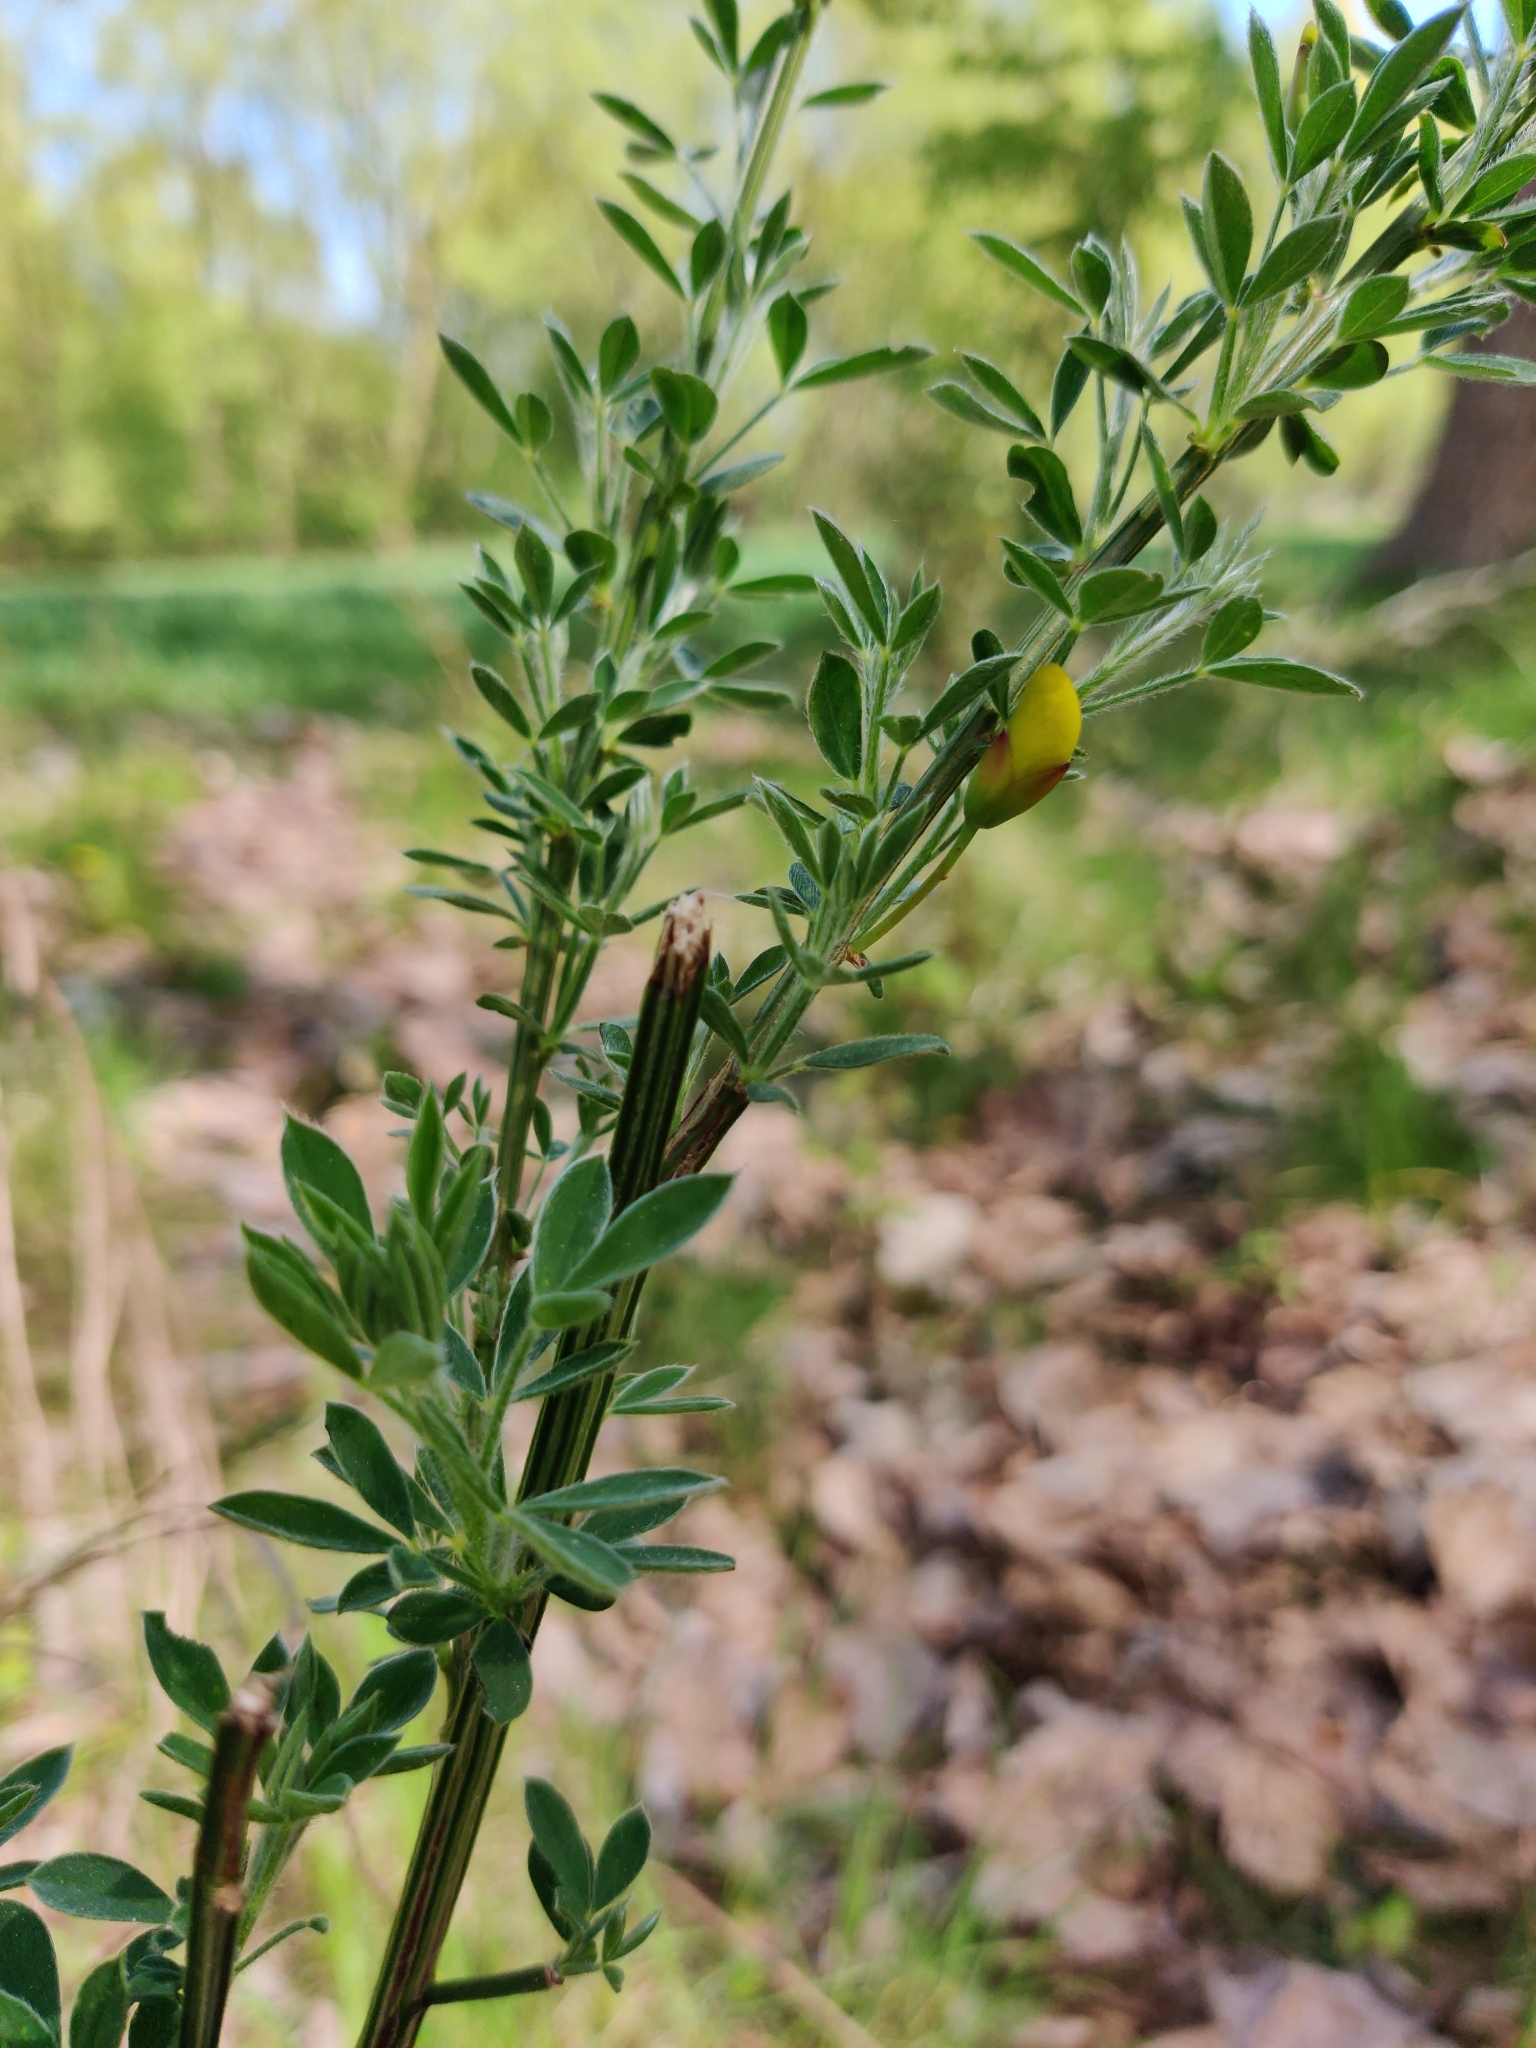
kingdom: Plantae
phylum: Tracheophyta
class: Magnoliopsida
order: Fabales
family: Fabaceae
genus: Cytisus
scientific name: Cytisus scoparius
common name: Scotch broom
